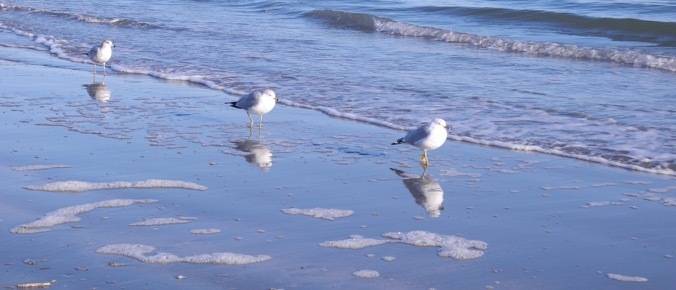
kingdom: Animalia
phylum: Chordata
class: Aves
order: Charadriiformes
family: Laridae
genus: Larus
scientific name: Larus delawarensis
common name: Ring-billed gull
